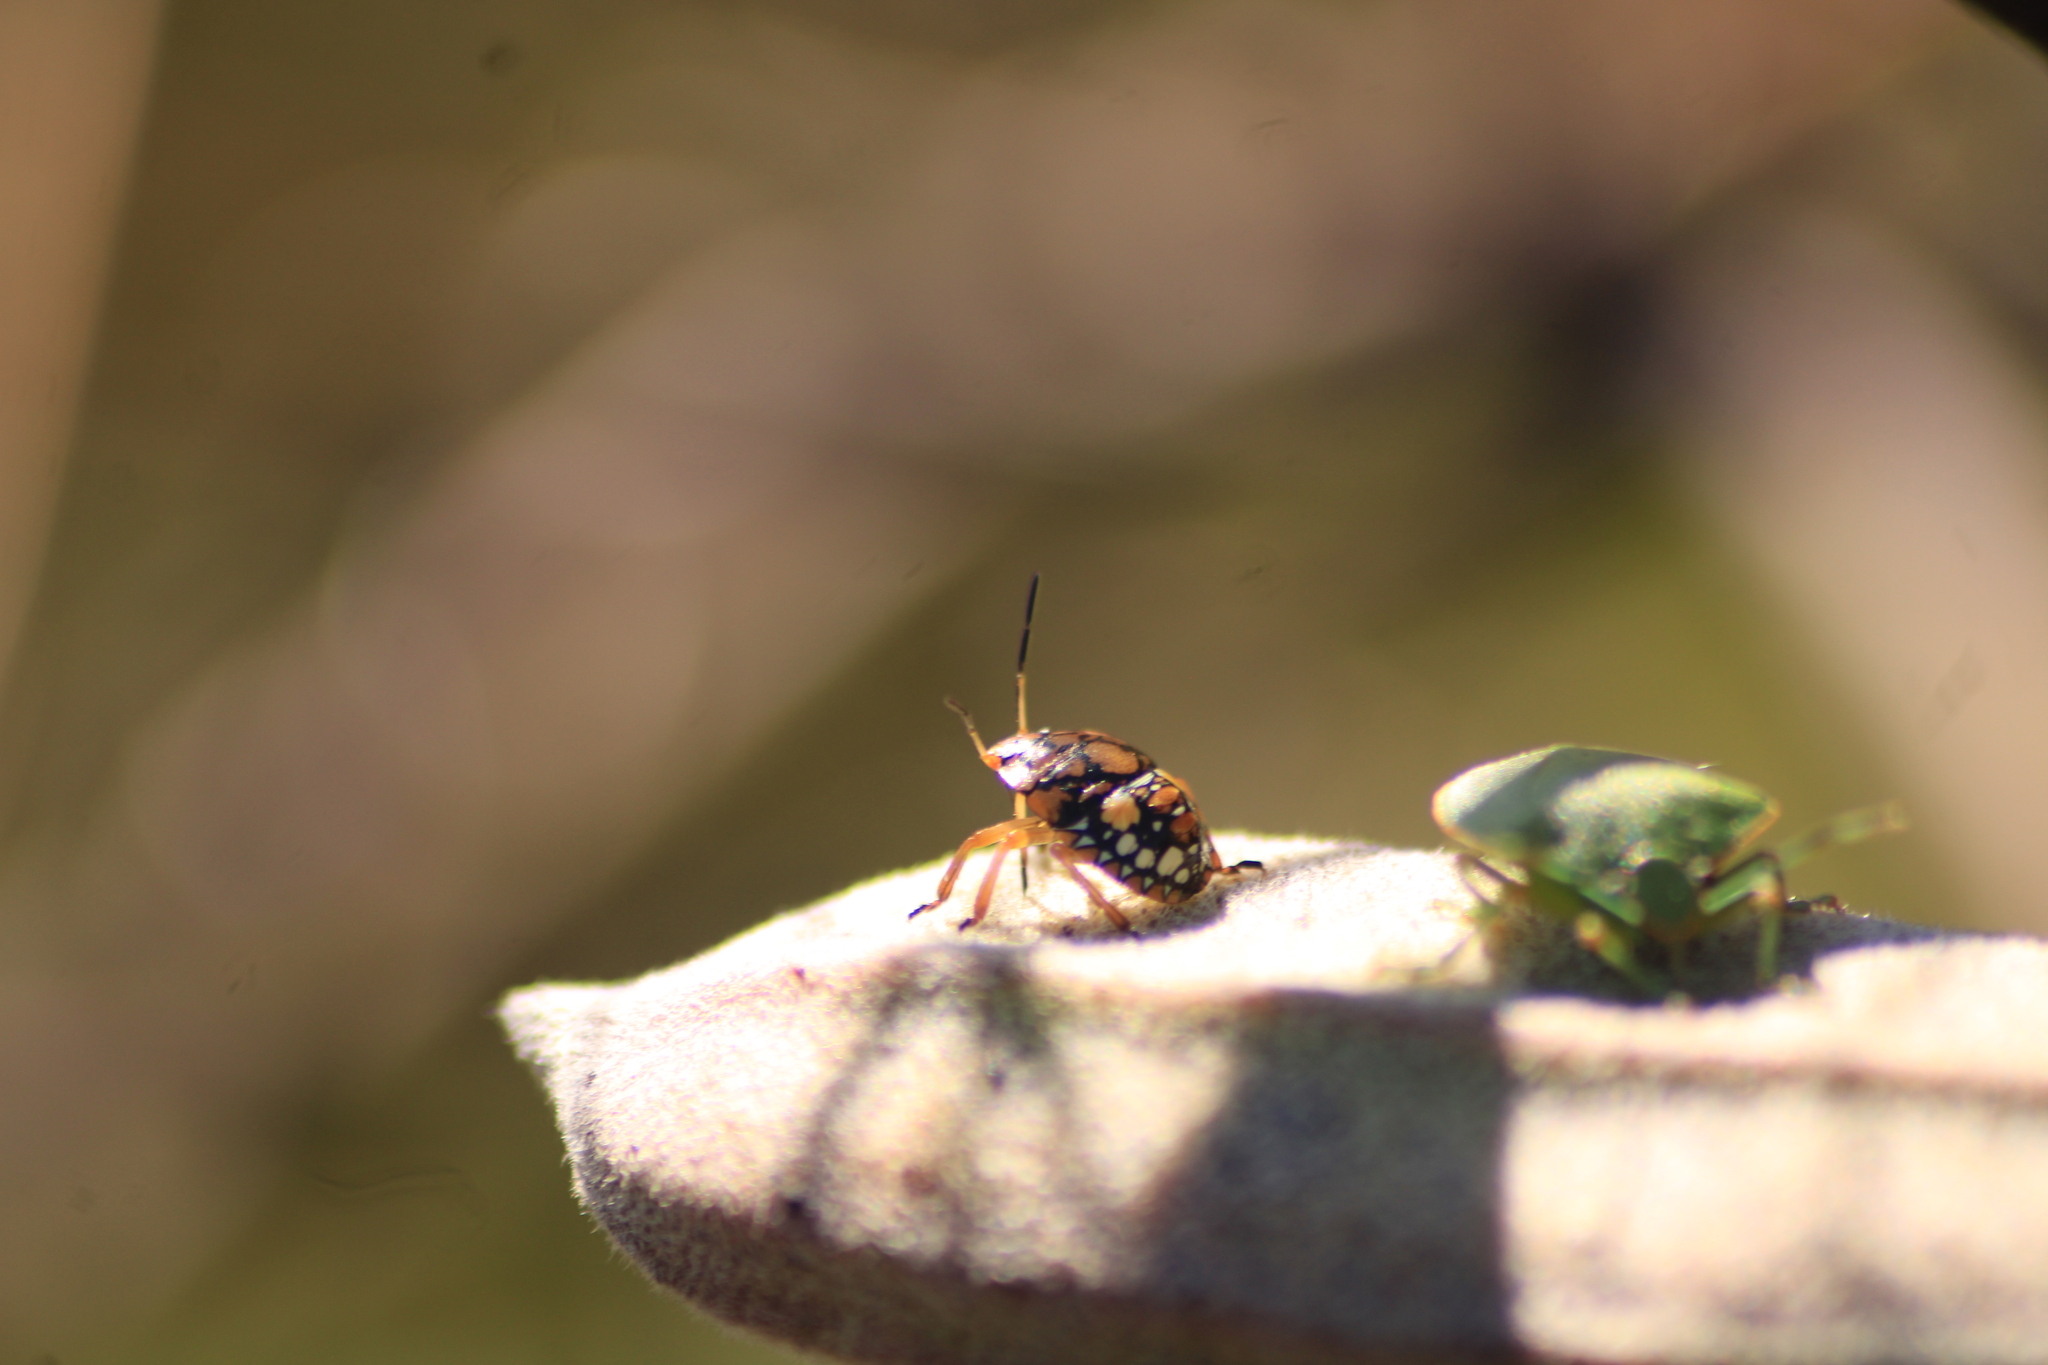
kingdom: Animalia
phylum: Arthropoda
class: Insecta
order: Hemiptera
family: Pentatomidae
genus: Acrosternum
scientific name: Acrosternum marginatum
